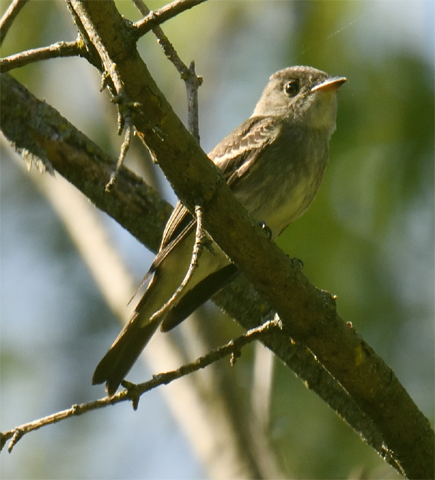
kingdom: Animalia
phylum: Chordata
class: Aves
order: Passeriformes
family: Tyrannidae
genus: Contopus
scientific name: Contopus virens
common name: Eastern wood-pewee
